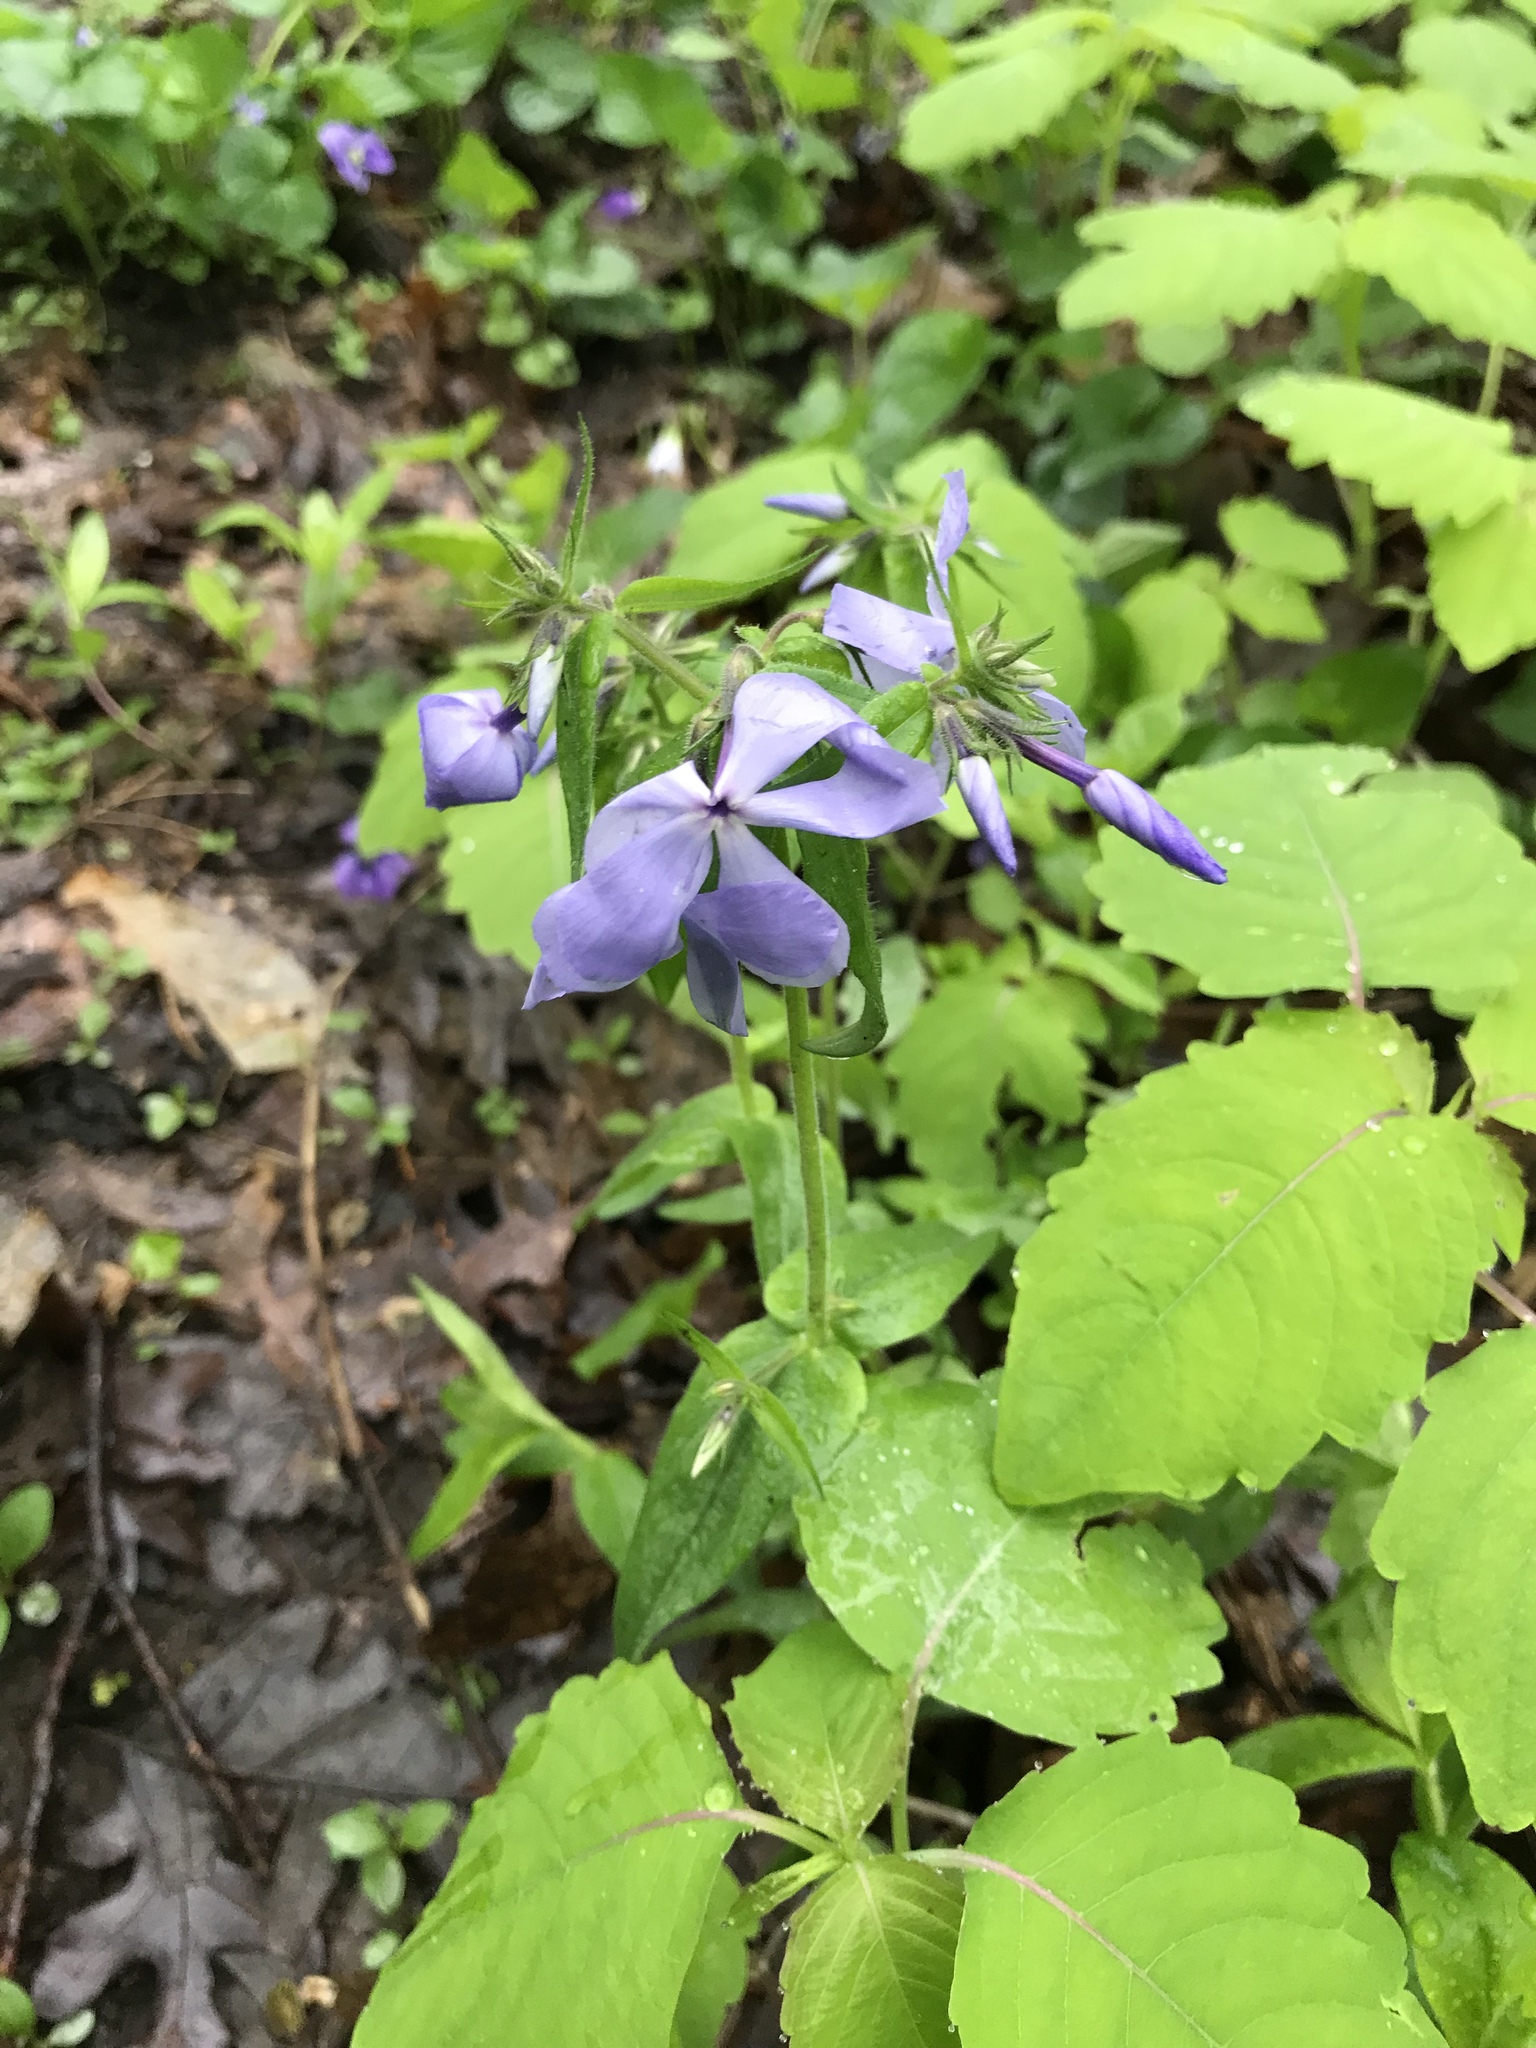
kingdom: Plantae
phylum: Tracheophyta
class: Magnoliopsida
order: Ericales
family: Polemoniaceae
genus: Phlox
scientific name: Phlox divaricata
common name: Blue phlox
